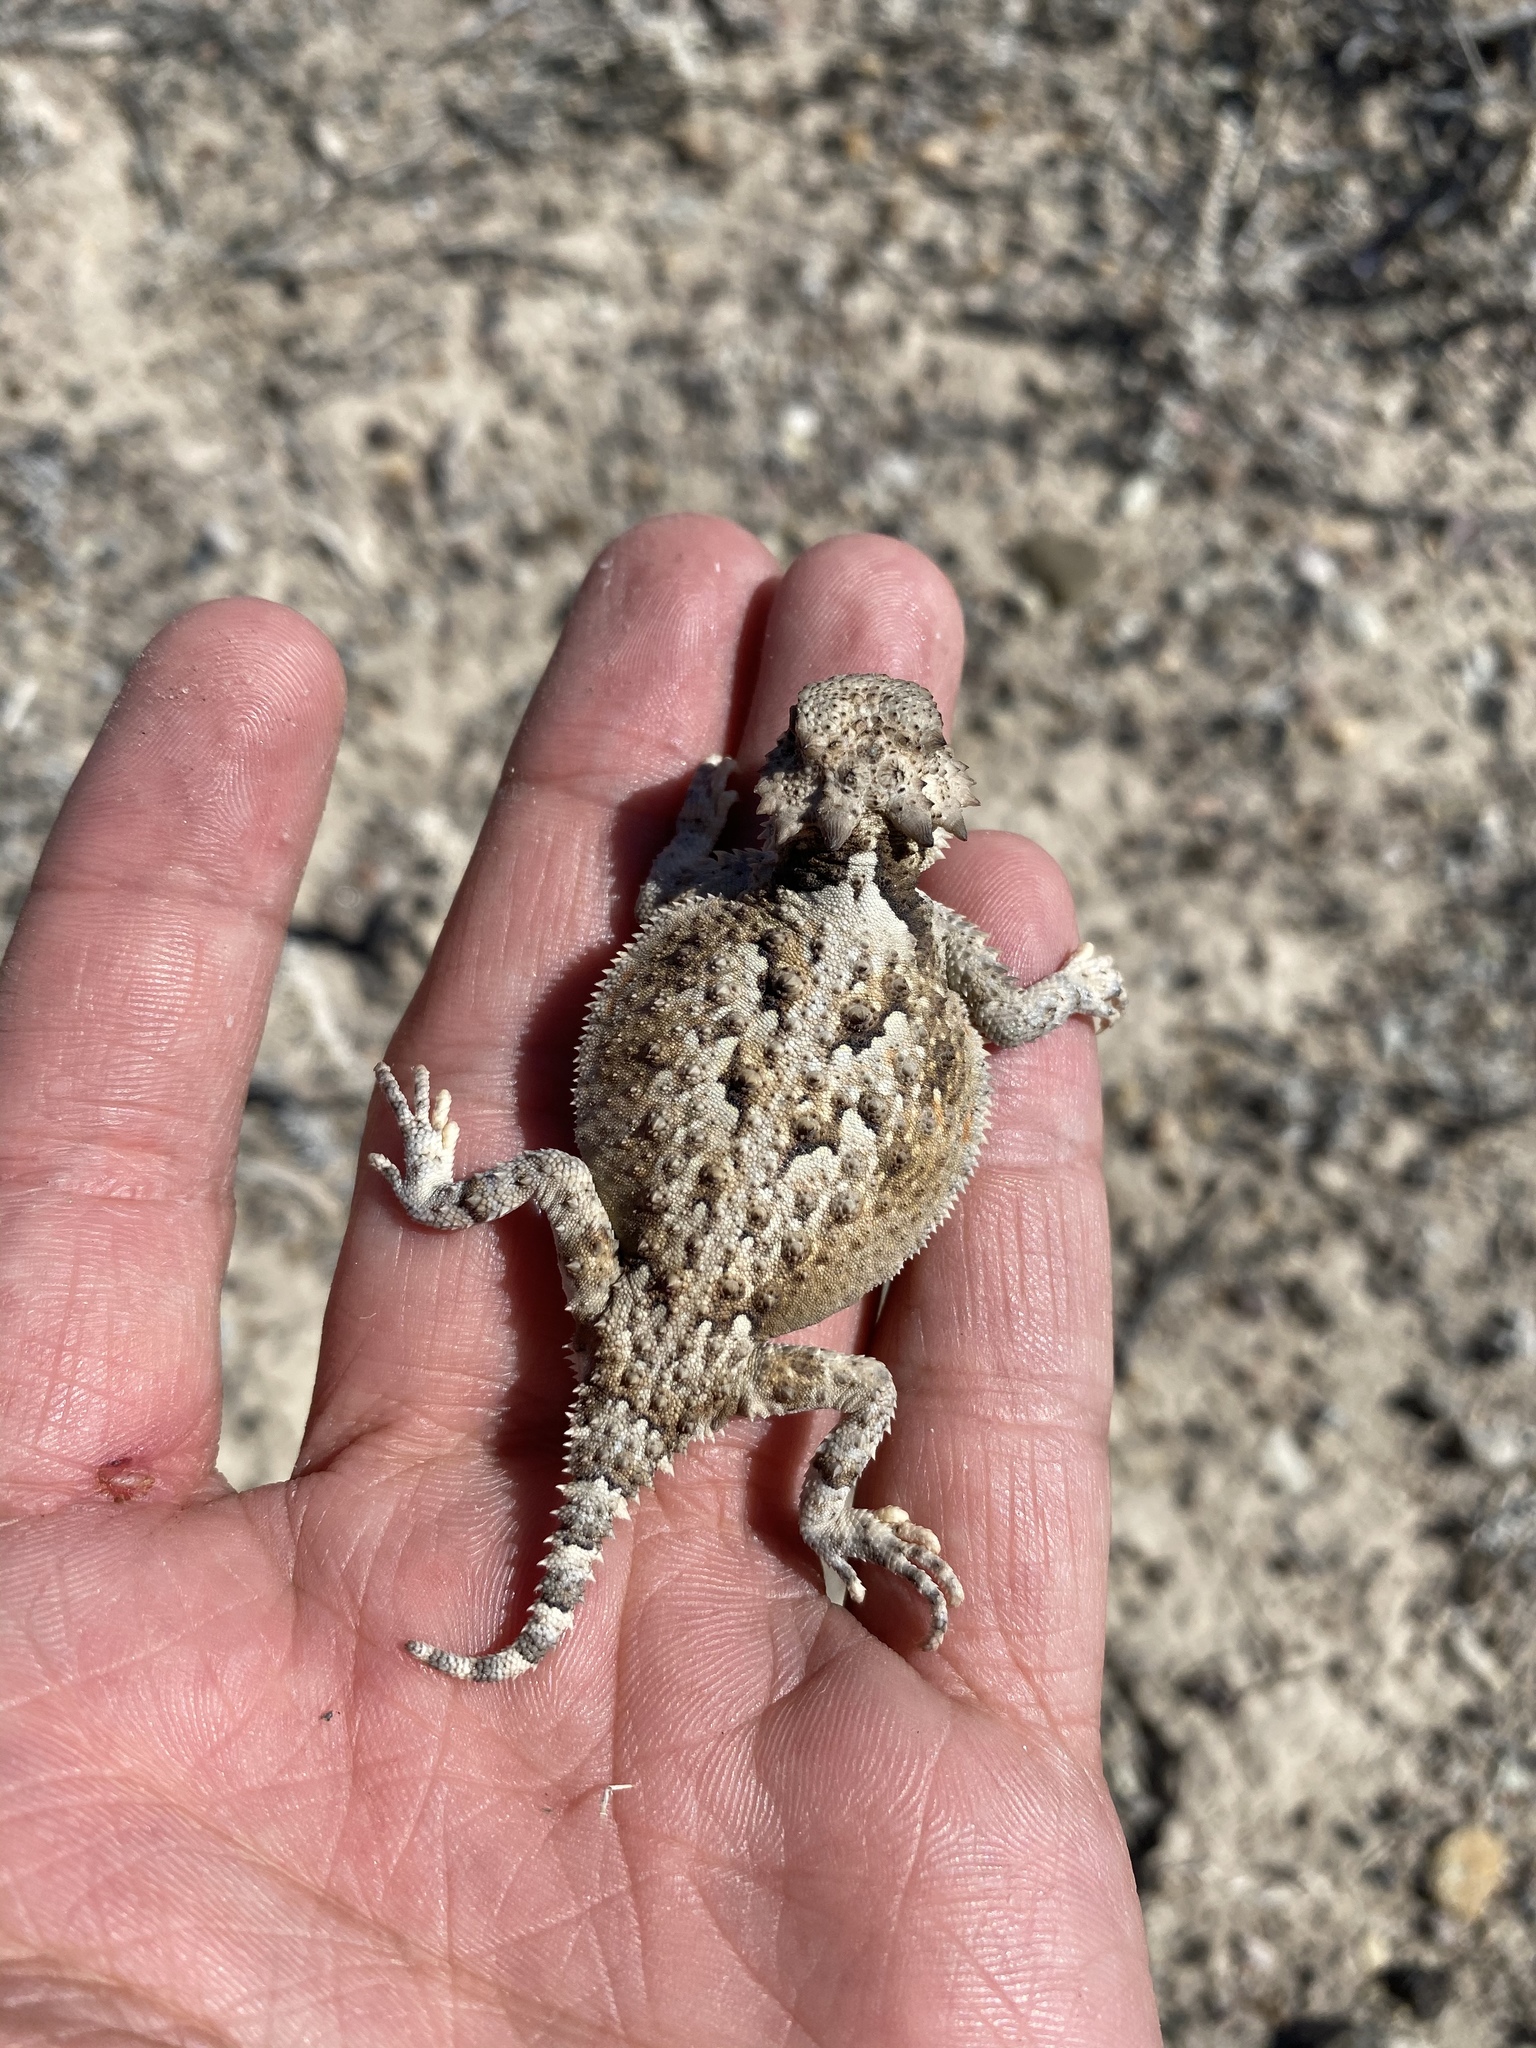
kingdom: Animalia
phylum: Chordata
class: Squamata
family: Phrynosomatidae
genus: Phrynosoma
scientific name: Phrynosoma platyrhinos
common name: Desert horned lizard
